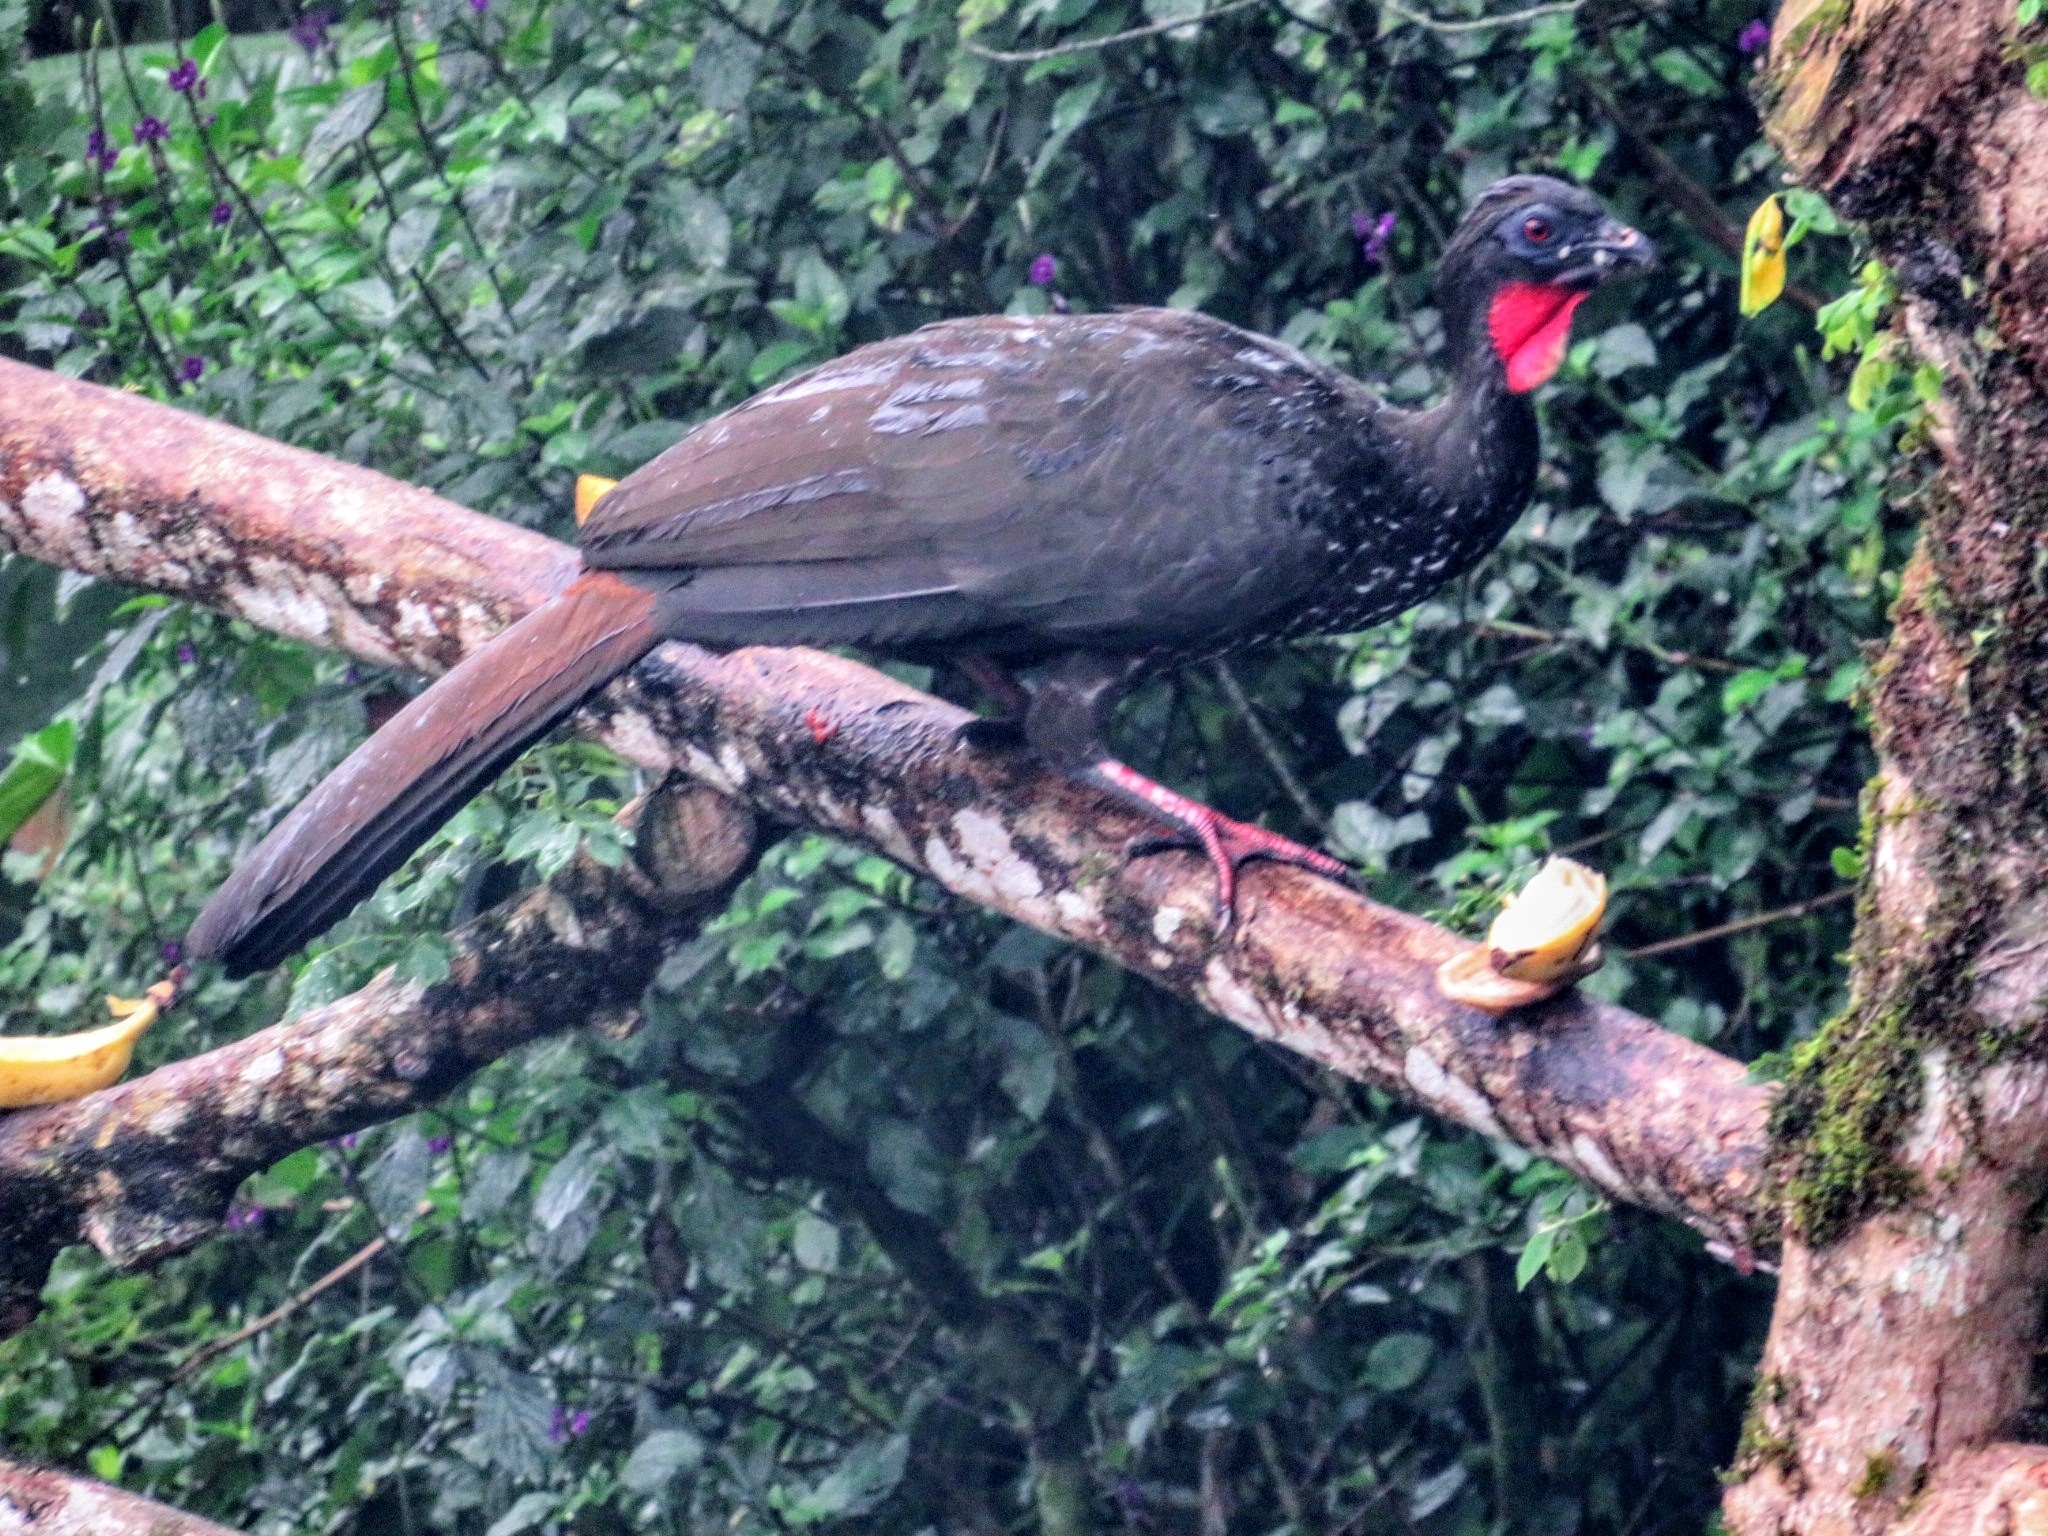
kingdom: Animalia
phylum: Chordata
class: Aves
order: Galliformes
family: Cracidae
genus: Penelope
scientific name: Penelope purpurascens
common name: Crested guan
